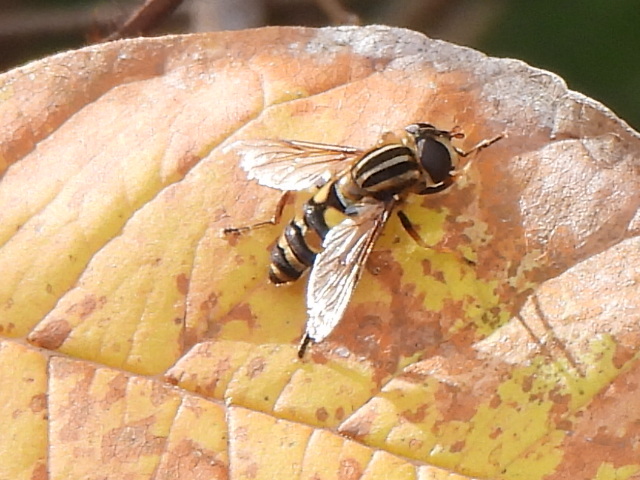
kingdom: Animalia
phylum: Arthropoda
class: Insecta
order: Diptera
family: Syrphidae
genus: Helophilus
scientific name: Helophilus fasciatus
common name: Narrow-headed marsh fly
